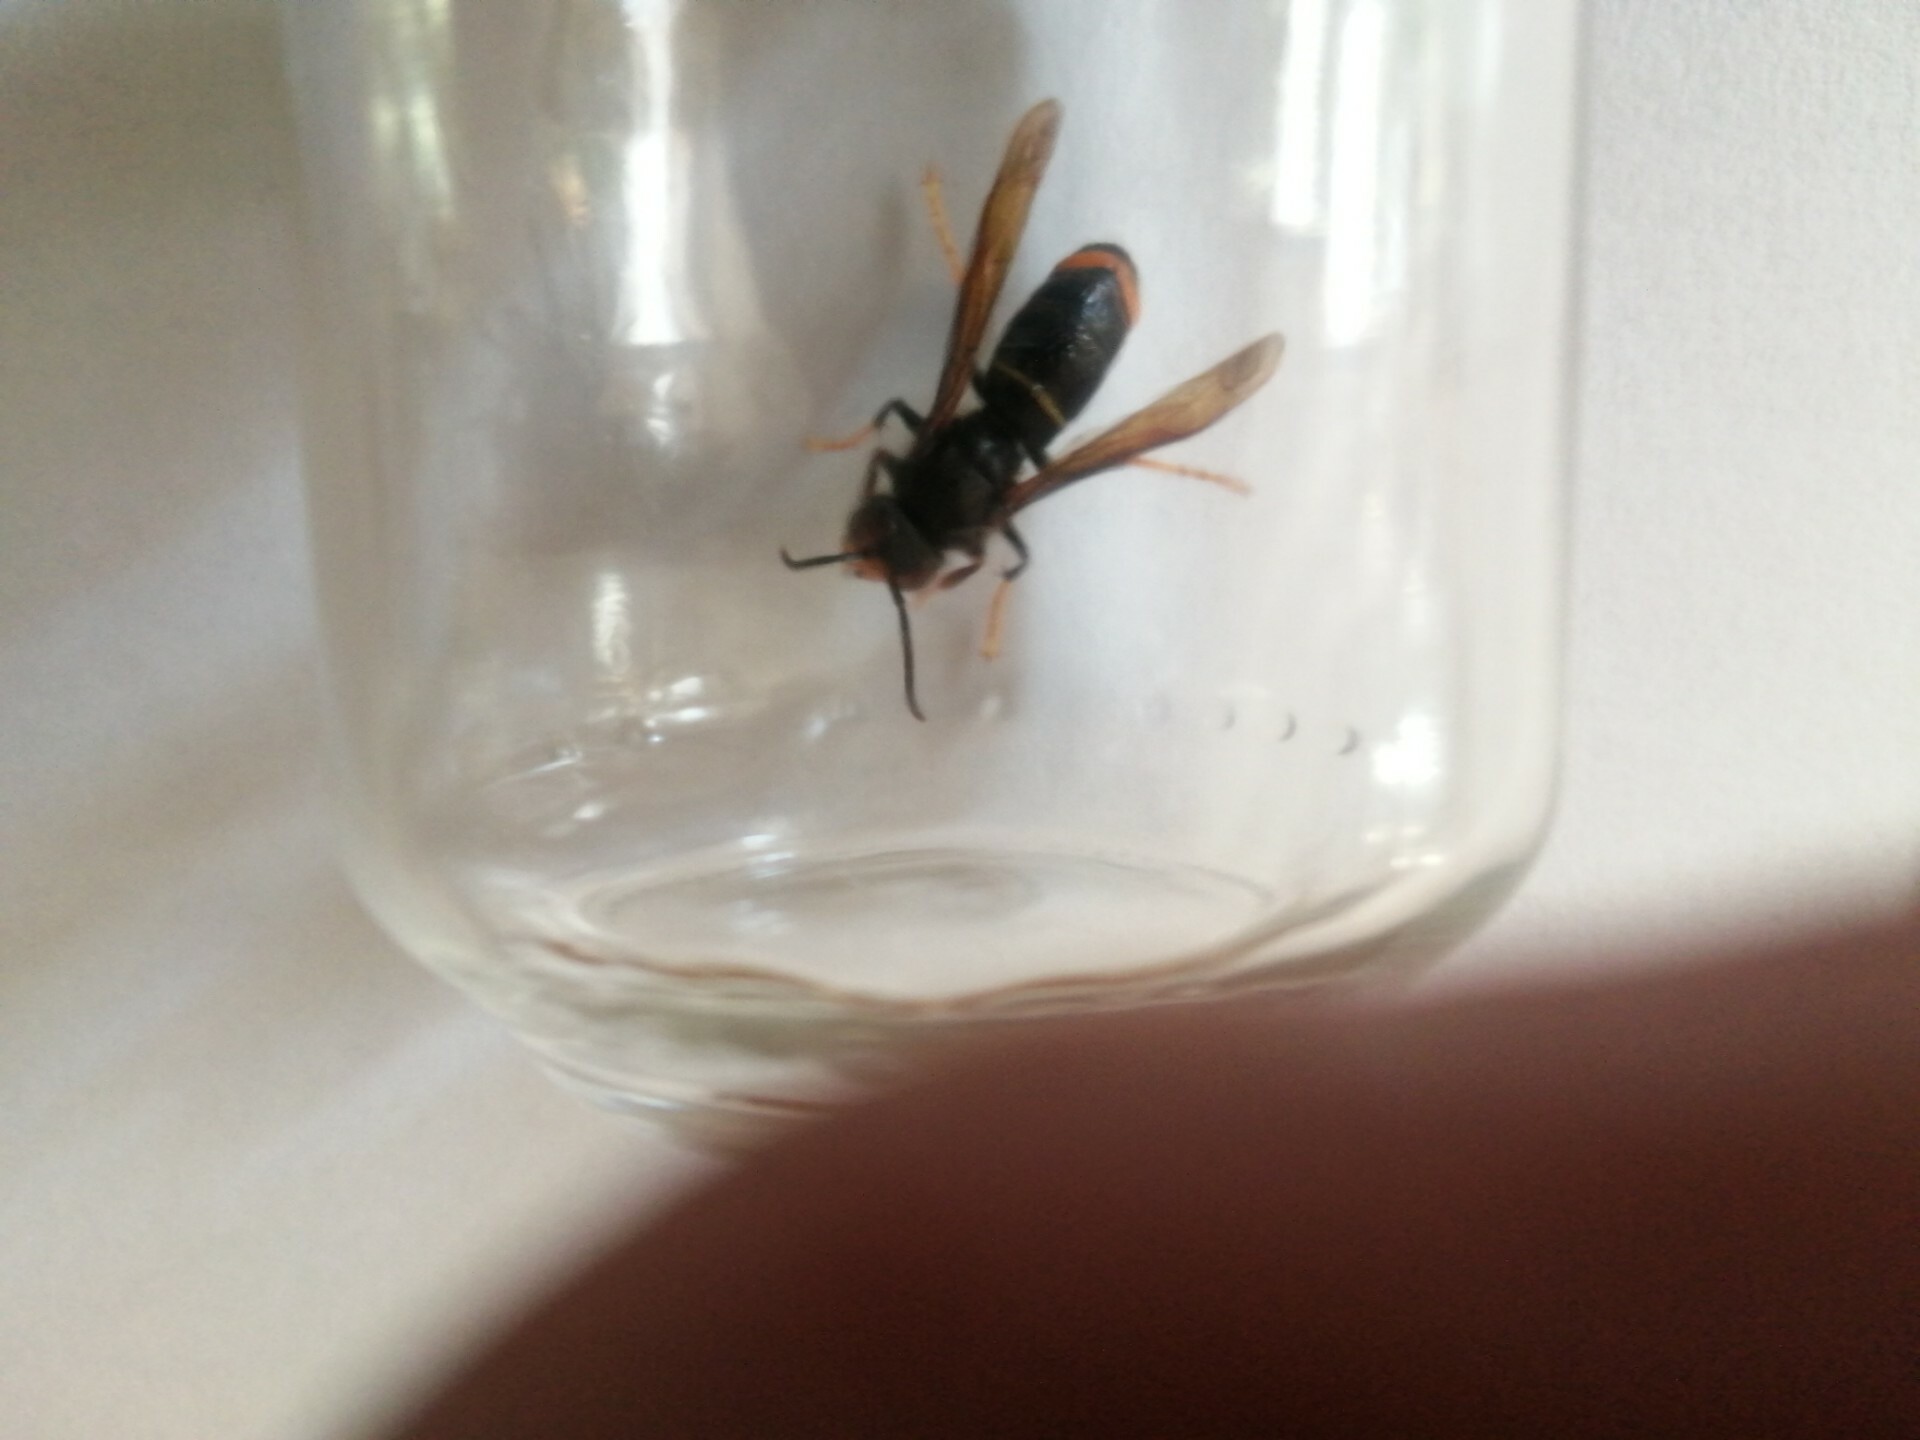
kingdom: Animalia
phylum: Arthropoda
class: Insecta
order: Hymenoptera
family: Vespidae
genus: Vespa
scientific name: Vespa velutina
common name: Asian hornet
